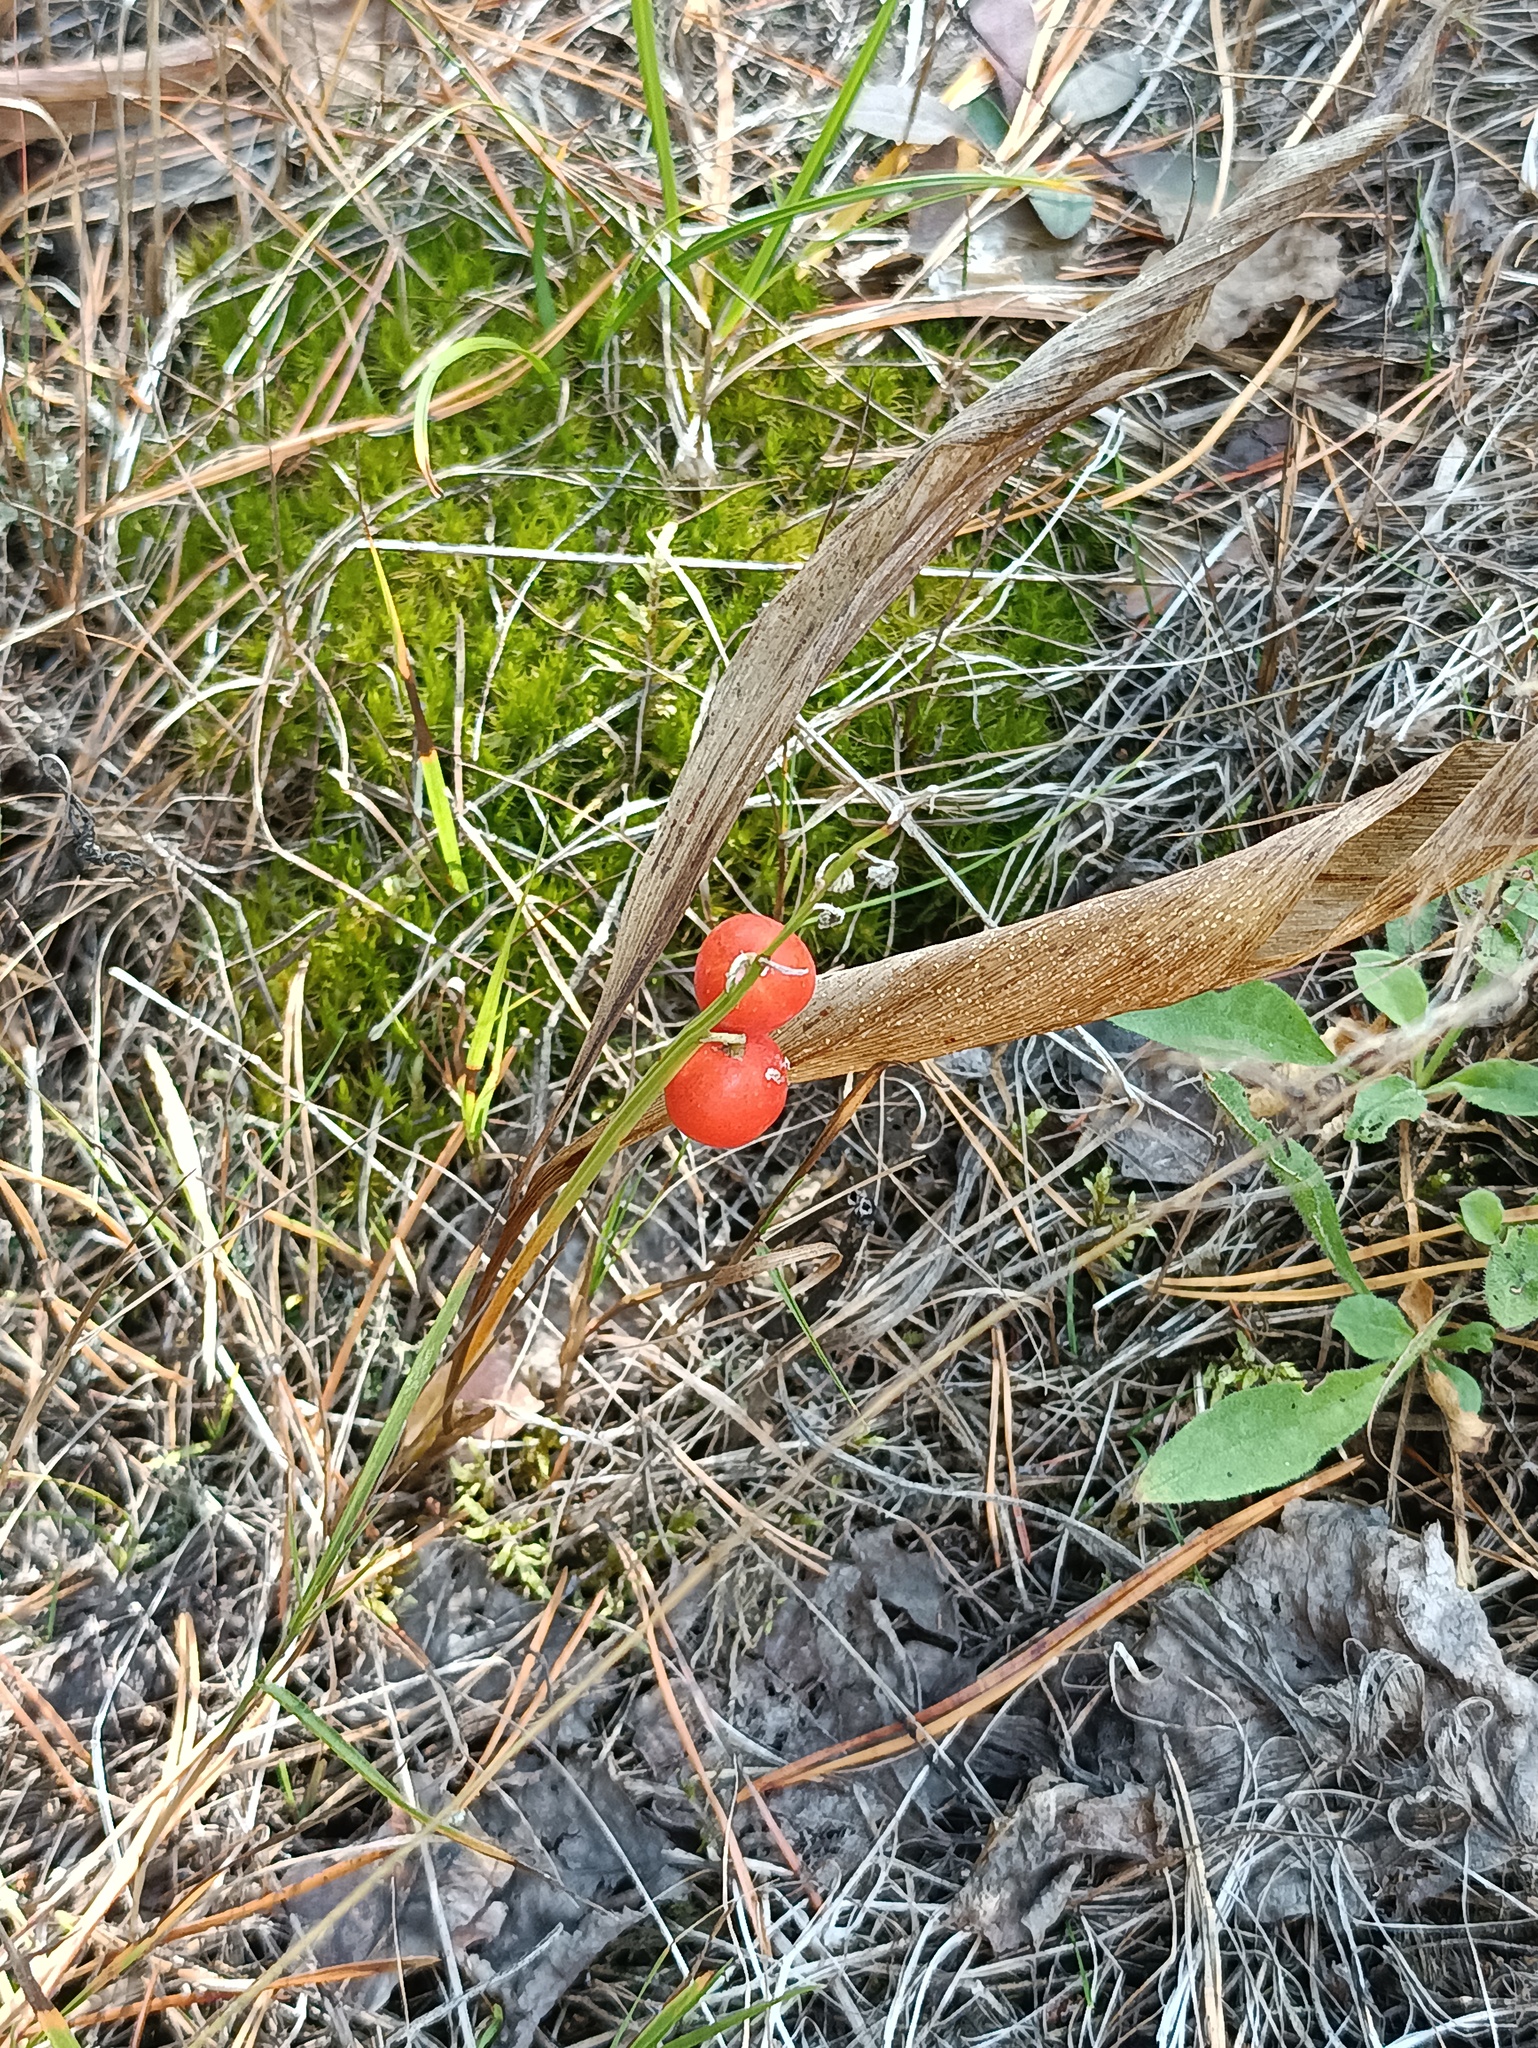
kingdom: Plantae
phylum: Tracheophyta
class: Liliopsida
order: Asparagales
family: Asparagaceae
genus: Convallaria
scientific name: Convallaria majalis
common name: Lily-of-the-valley
